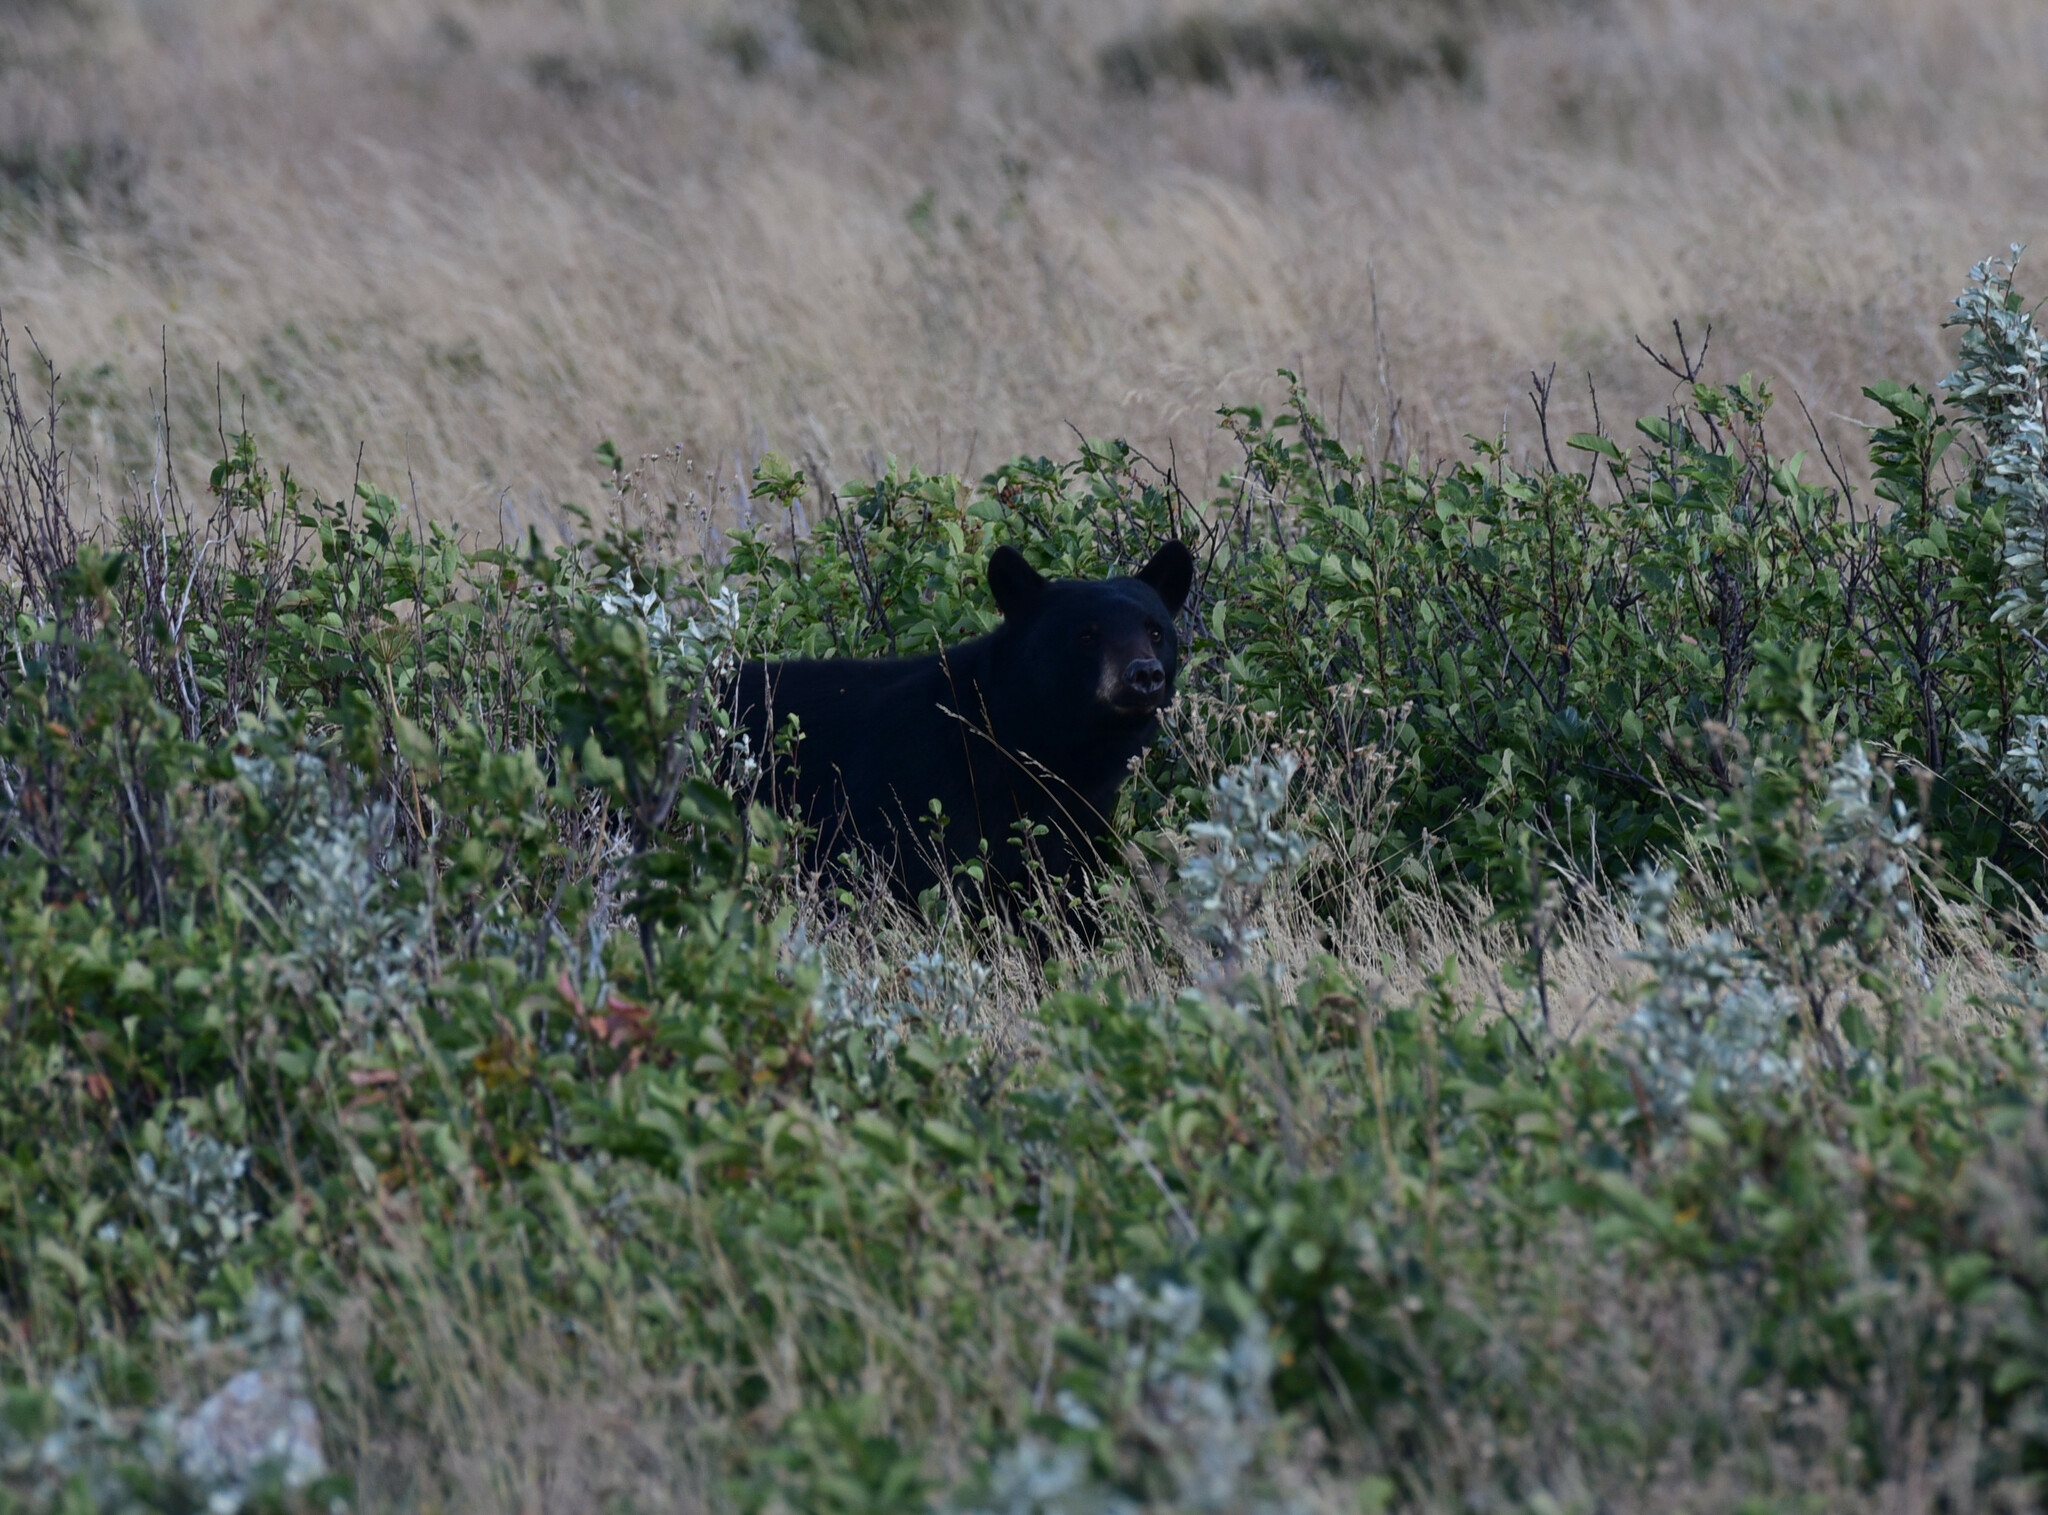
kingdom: Animalia
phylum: Chordata
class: Mammalia
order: Carnivora
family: Ursidae
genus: Ursus
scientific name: Ursus americanus
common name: American black bear
